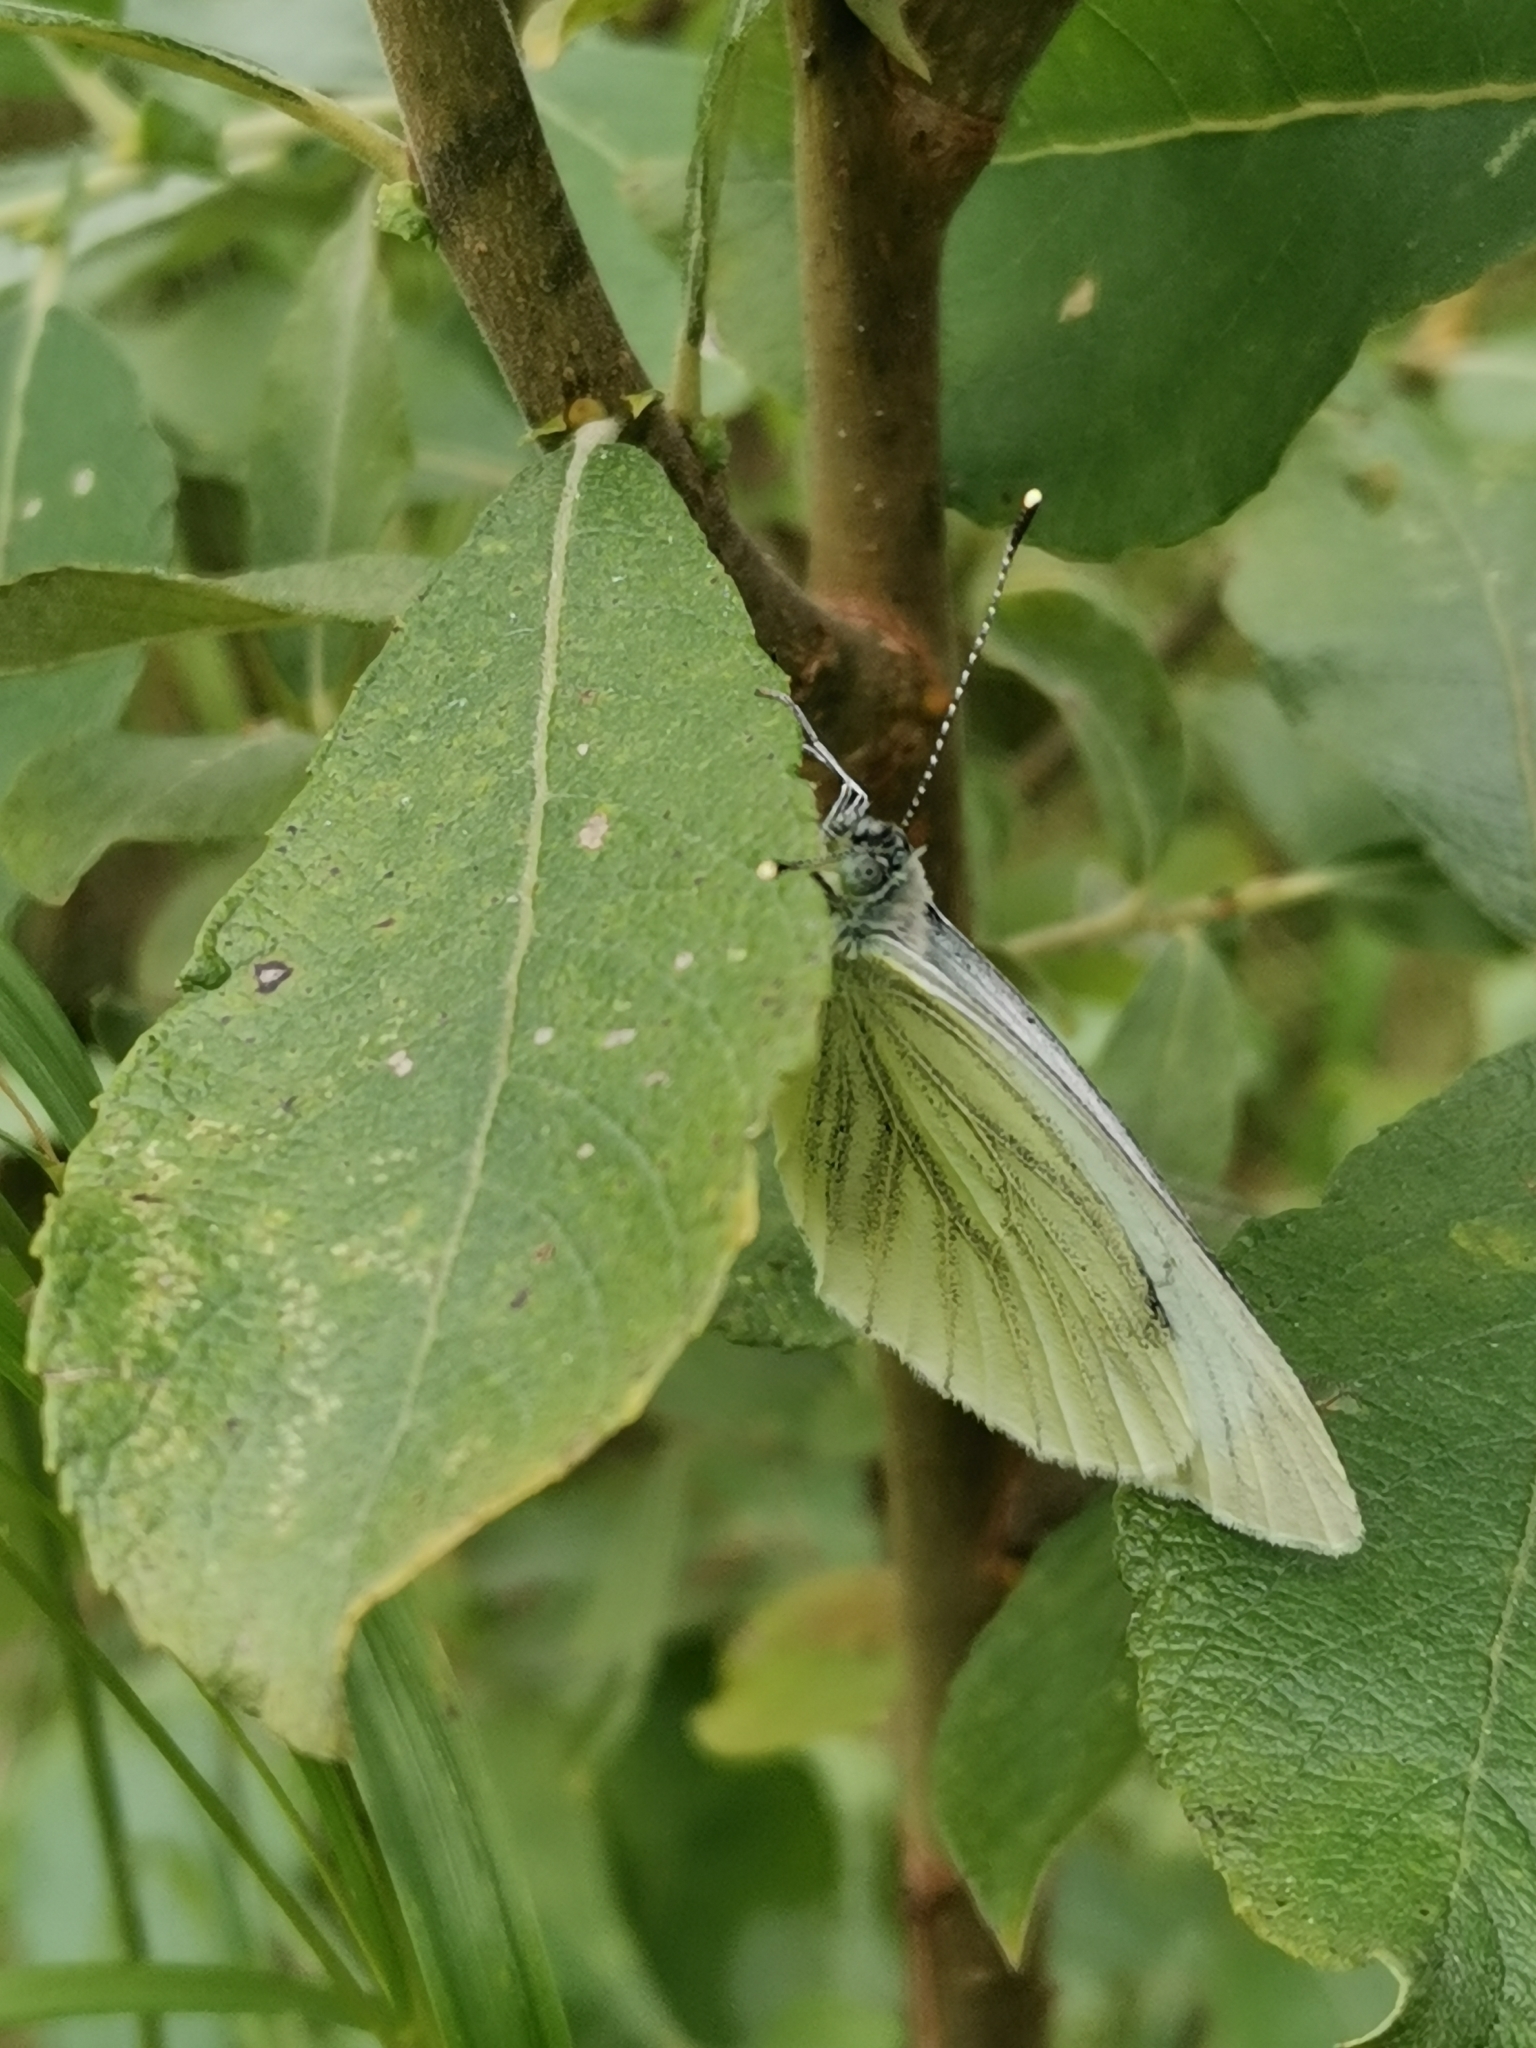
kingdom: Animalia
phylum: Arthropoda
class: Insecta
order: Lepidoptera
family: Pieridae
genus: Pieris
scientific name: Pieris napi
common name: Green-veined white
